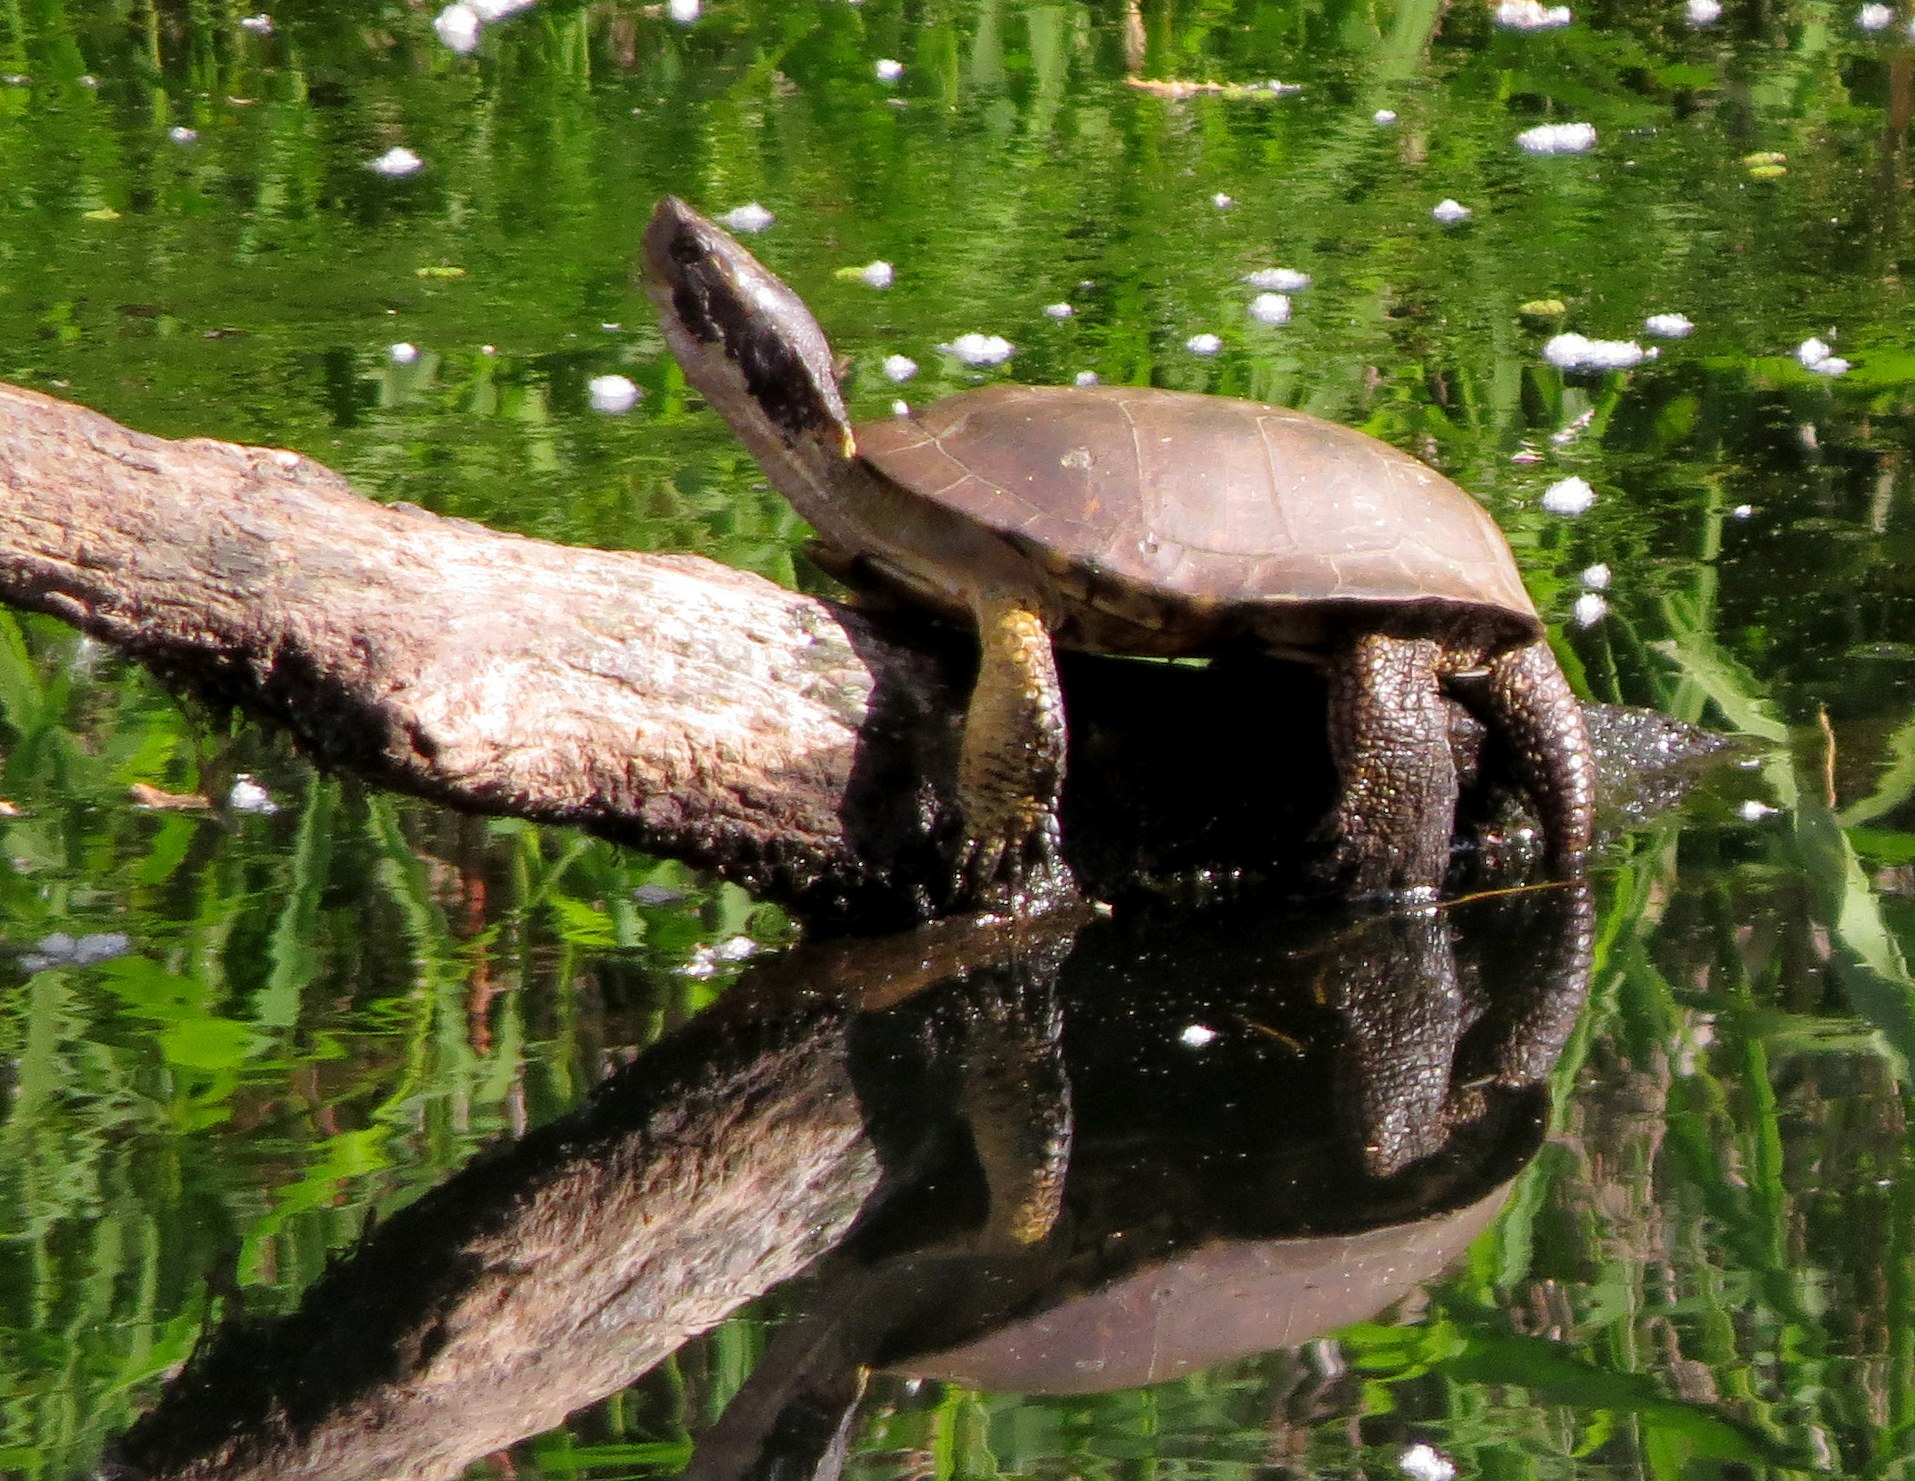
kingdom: Animalia
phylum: Chordata
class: Testudines
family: Emydidae
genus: Actinemys
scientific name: Actinemys marmorata
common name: Western pond turtle
